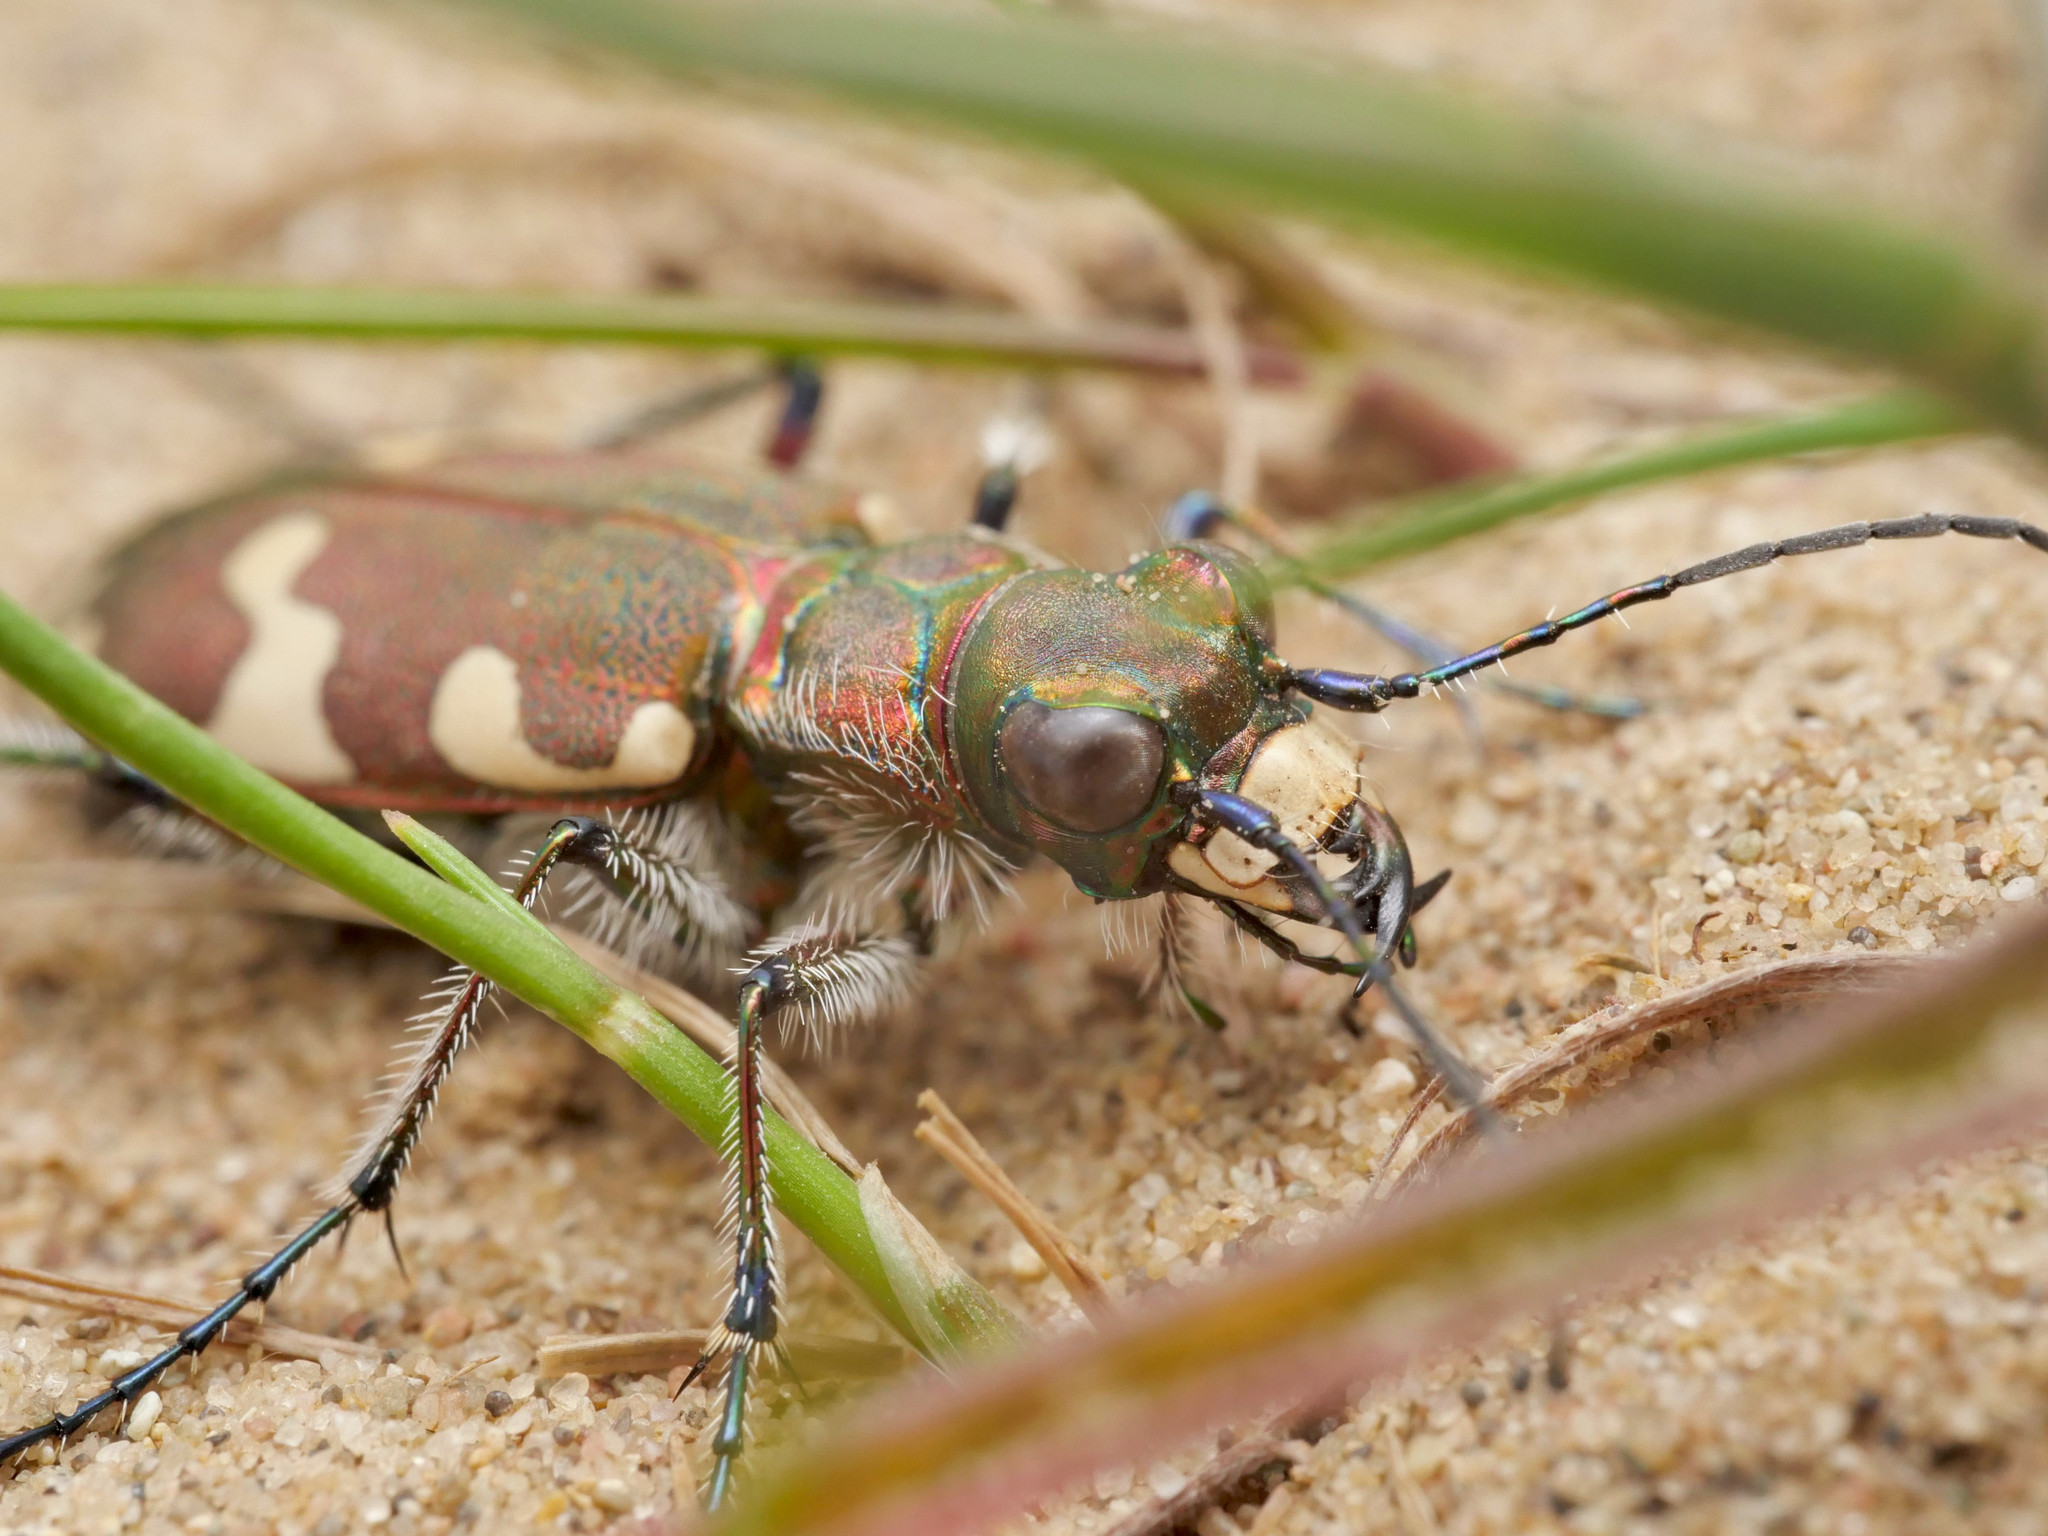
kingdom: Animalia
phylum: Arthropoda
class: Insecta
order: Coleoptera
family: Carabidae
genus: Cicindela
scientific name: Cicindela hybrida
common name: Northern dune tiger beetle
